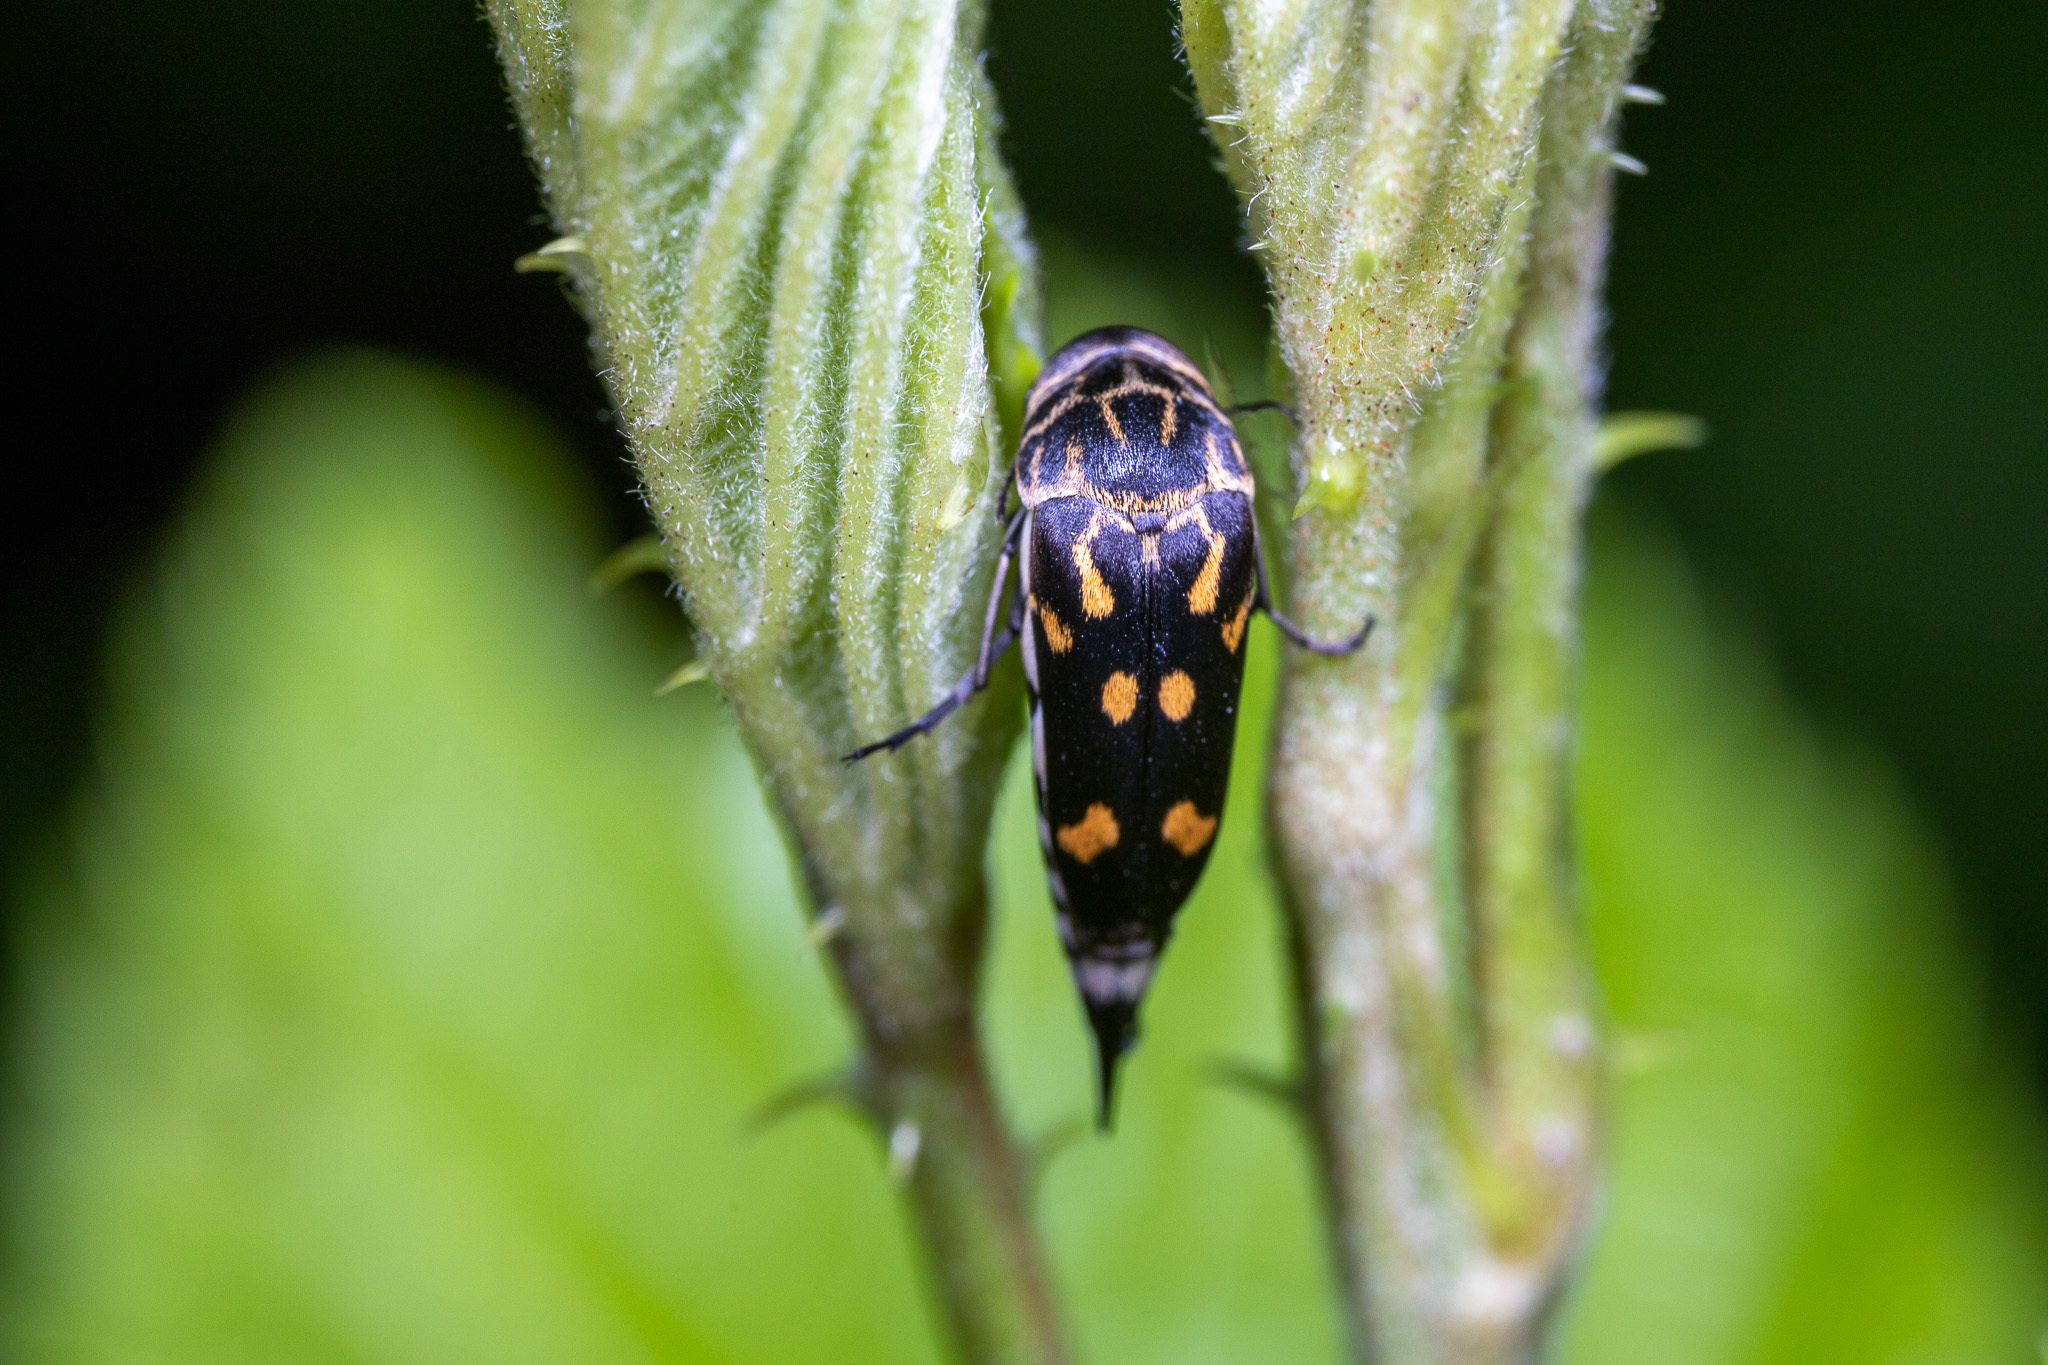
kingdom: Animalia
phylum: Arthropoda
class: Insecta
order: Coleoptera
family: Mordellidae
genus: Hoshihananomia
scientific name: Hoshihananomia octopunctata
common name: Eight-spotted tumbling flower beetle
